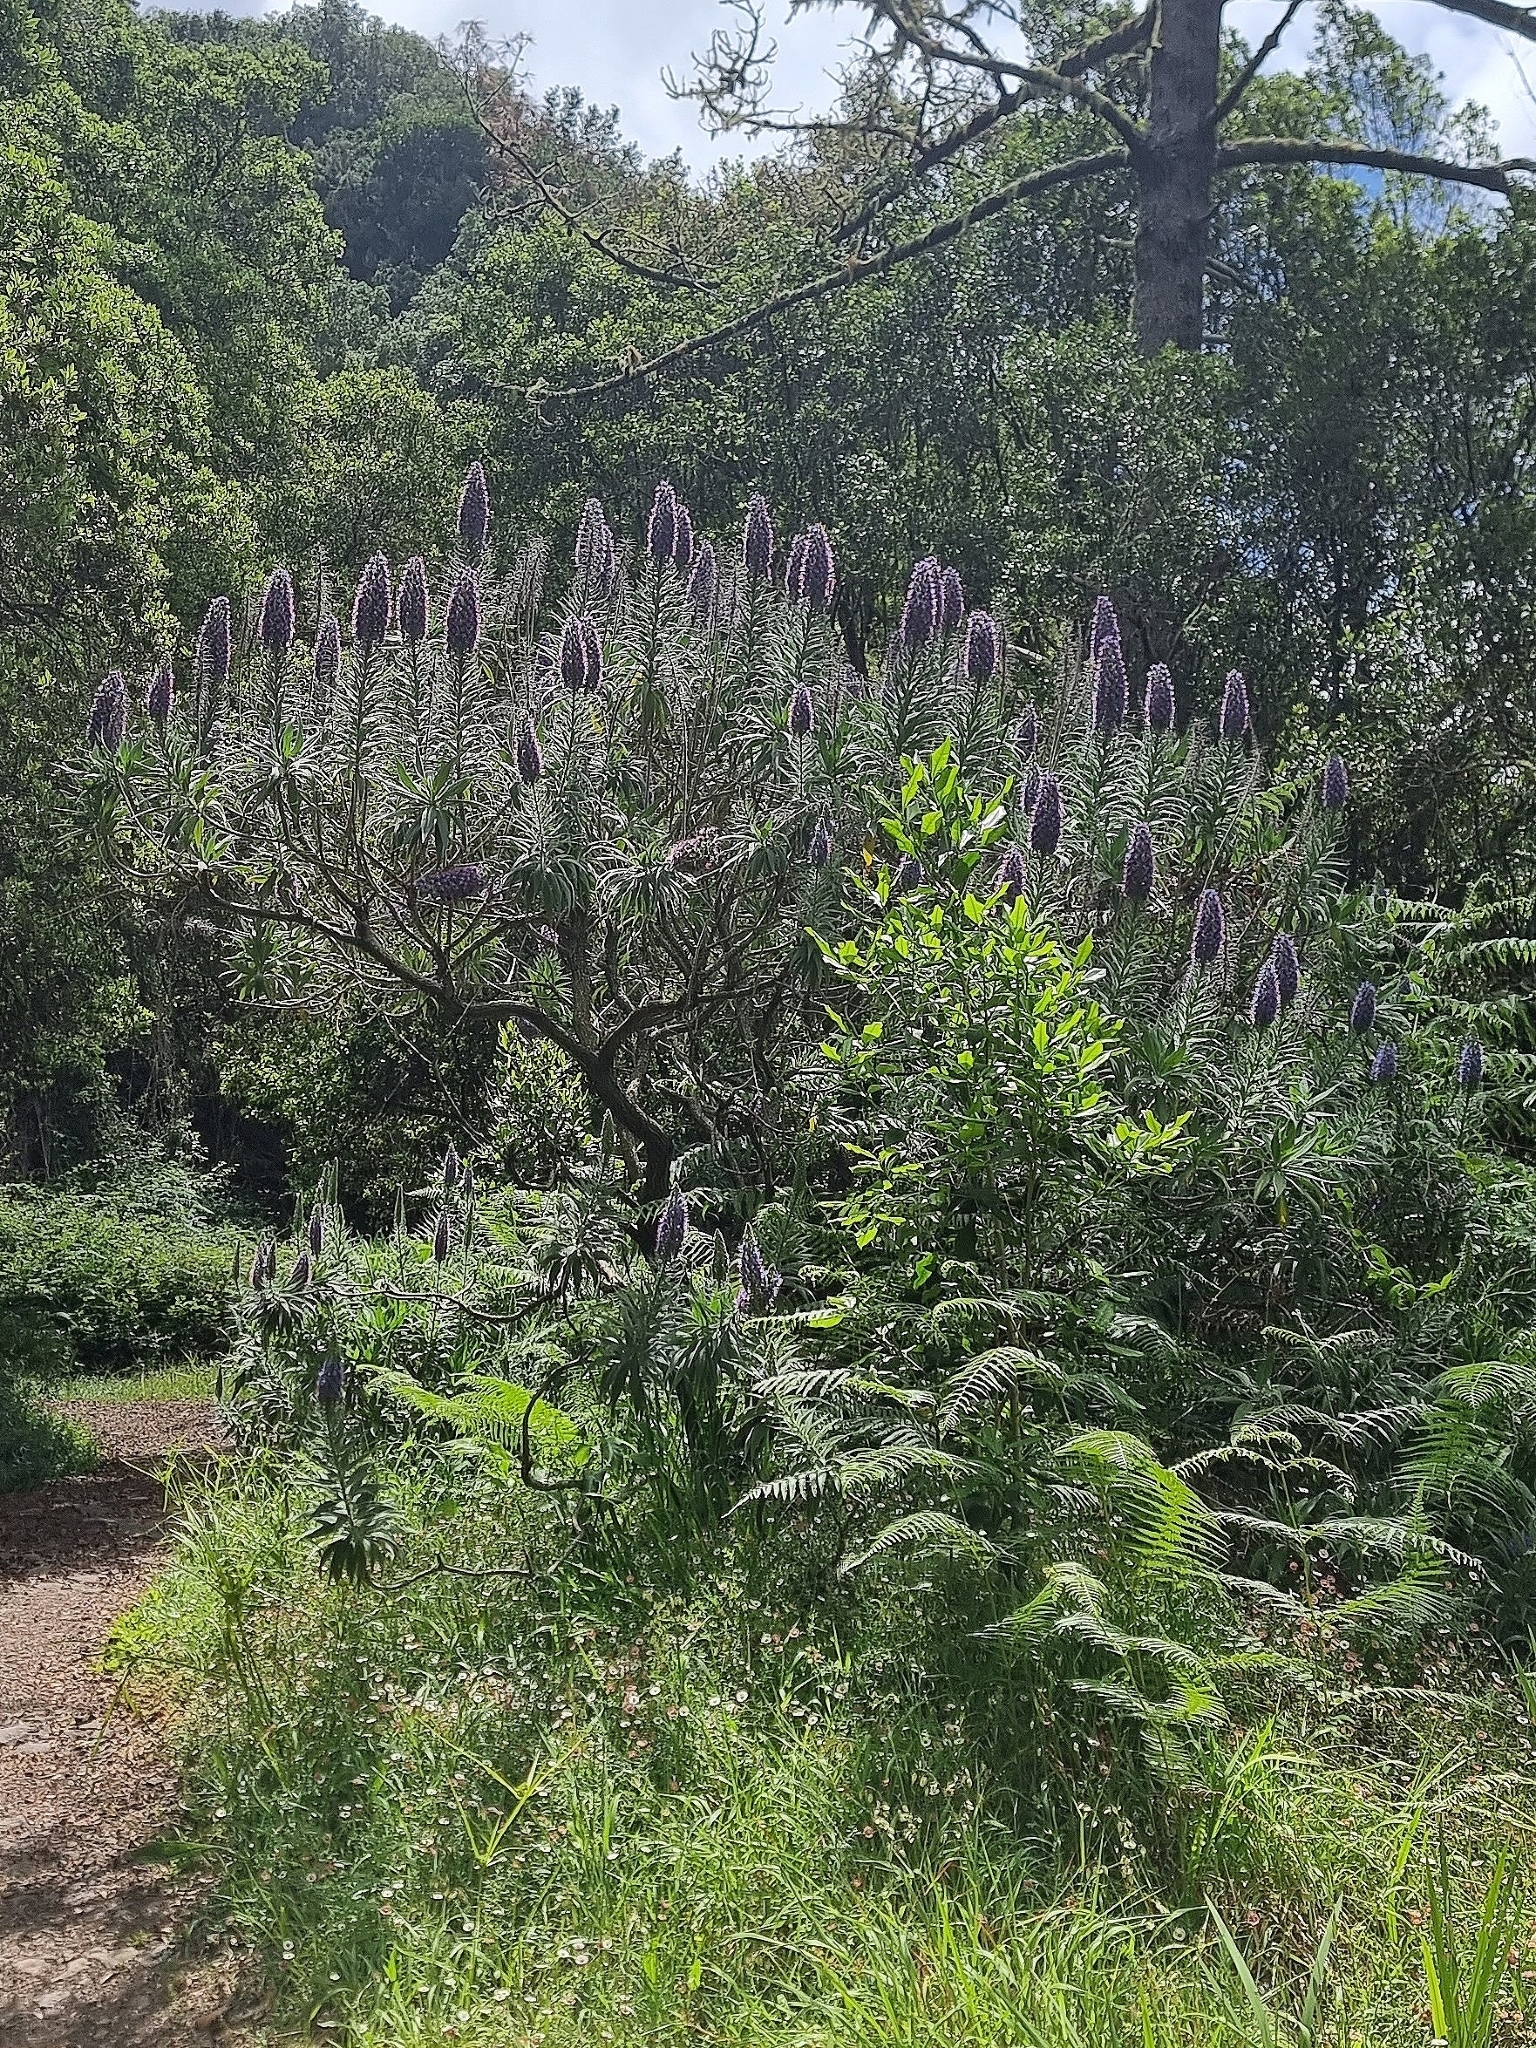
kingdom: Plantae
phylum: Tracheophyta
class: Magnoliopsida
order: Boraginales
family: Boraginaceae
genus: Echium
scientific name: Echium candicans
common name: Pride of madeira
